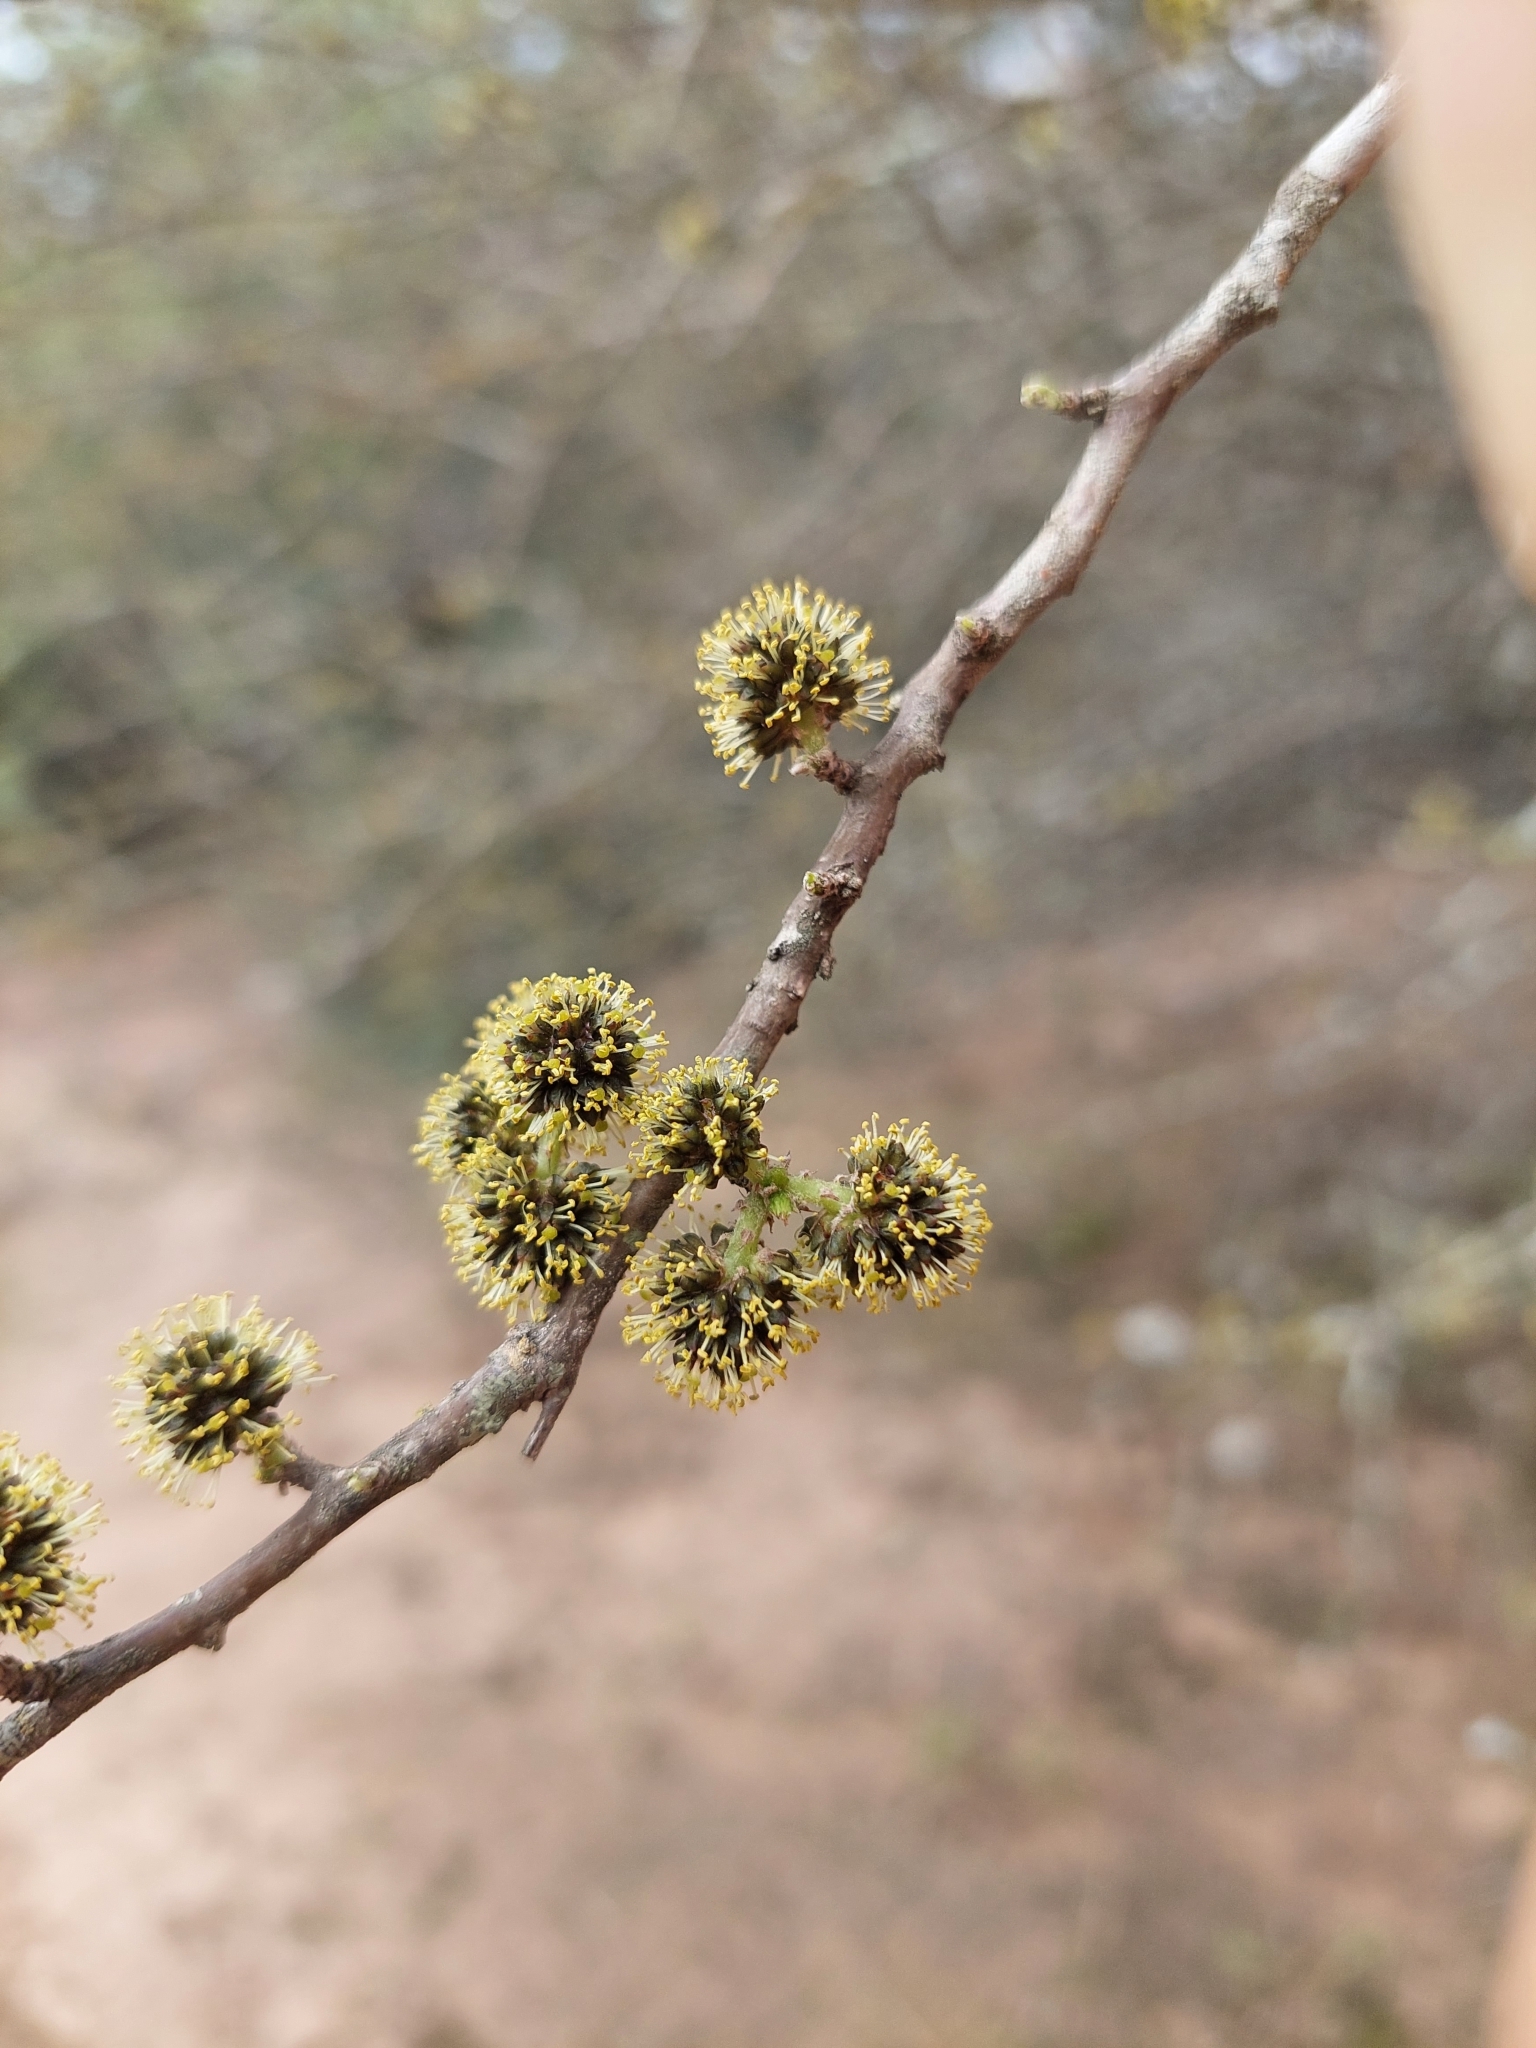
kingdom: Plantae
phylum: Tracheophyta
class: Magnoliopsida
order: Fabales
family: Fabaceae
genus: Mimozyganthus
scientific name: Mimozyganthus carinatus
